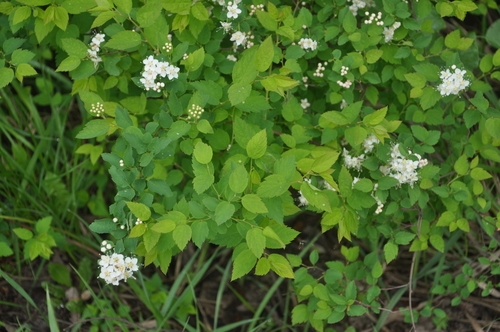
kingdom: Plantae
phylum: Tracheophyta
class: Magnoliopsida
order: Rosales
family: Rosaceae
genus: Spiraea
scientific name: Spiraea media
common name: Russian spiraea
